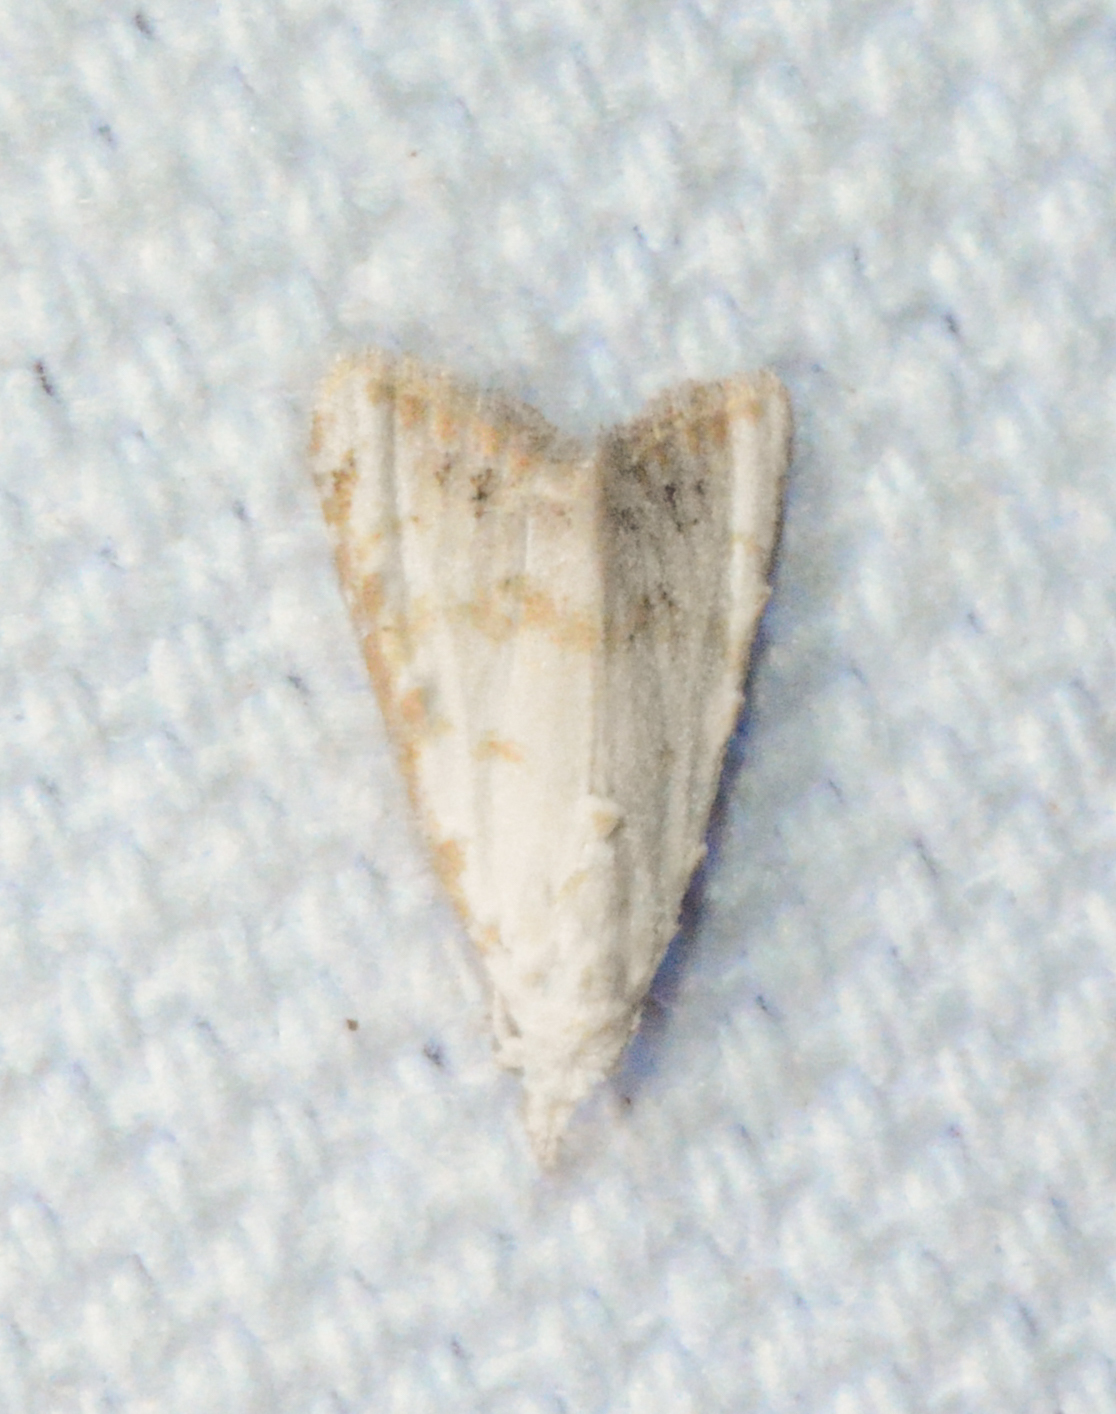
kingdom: Animalia
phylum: Arthropoda
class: Insecta
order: Lepidoptera
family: Nolidae
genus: Nola
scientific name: Nola cereella
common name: Sorghum webworm moth
